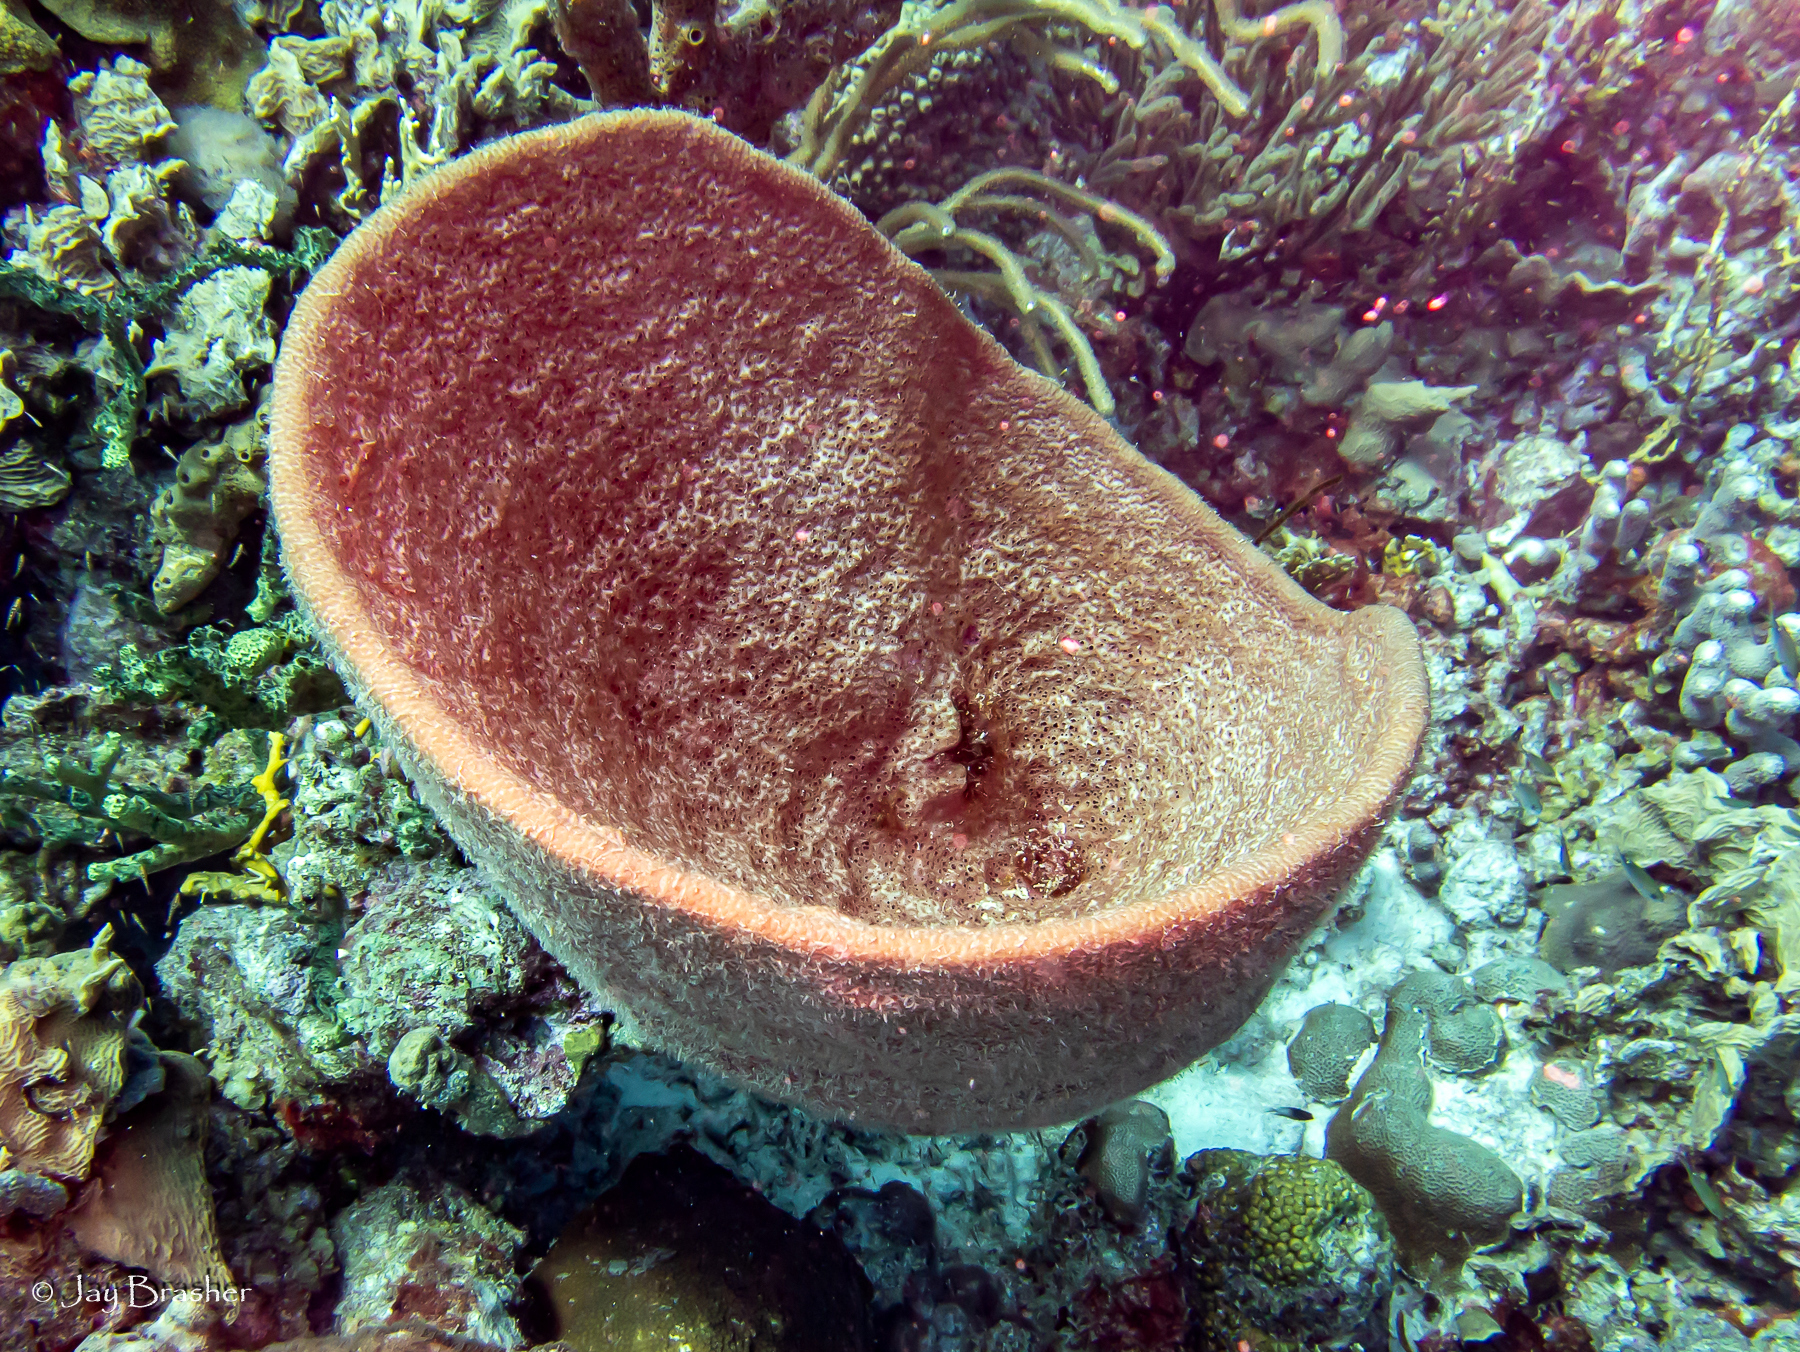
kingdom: Animalia
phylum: Porifera
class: Demospongiae
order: Dictyoceratida
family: Irciniidae
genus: Ircinia
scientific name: Ircinia campana
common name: Vase sponge
